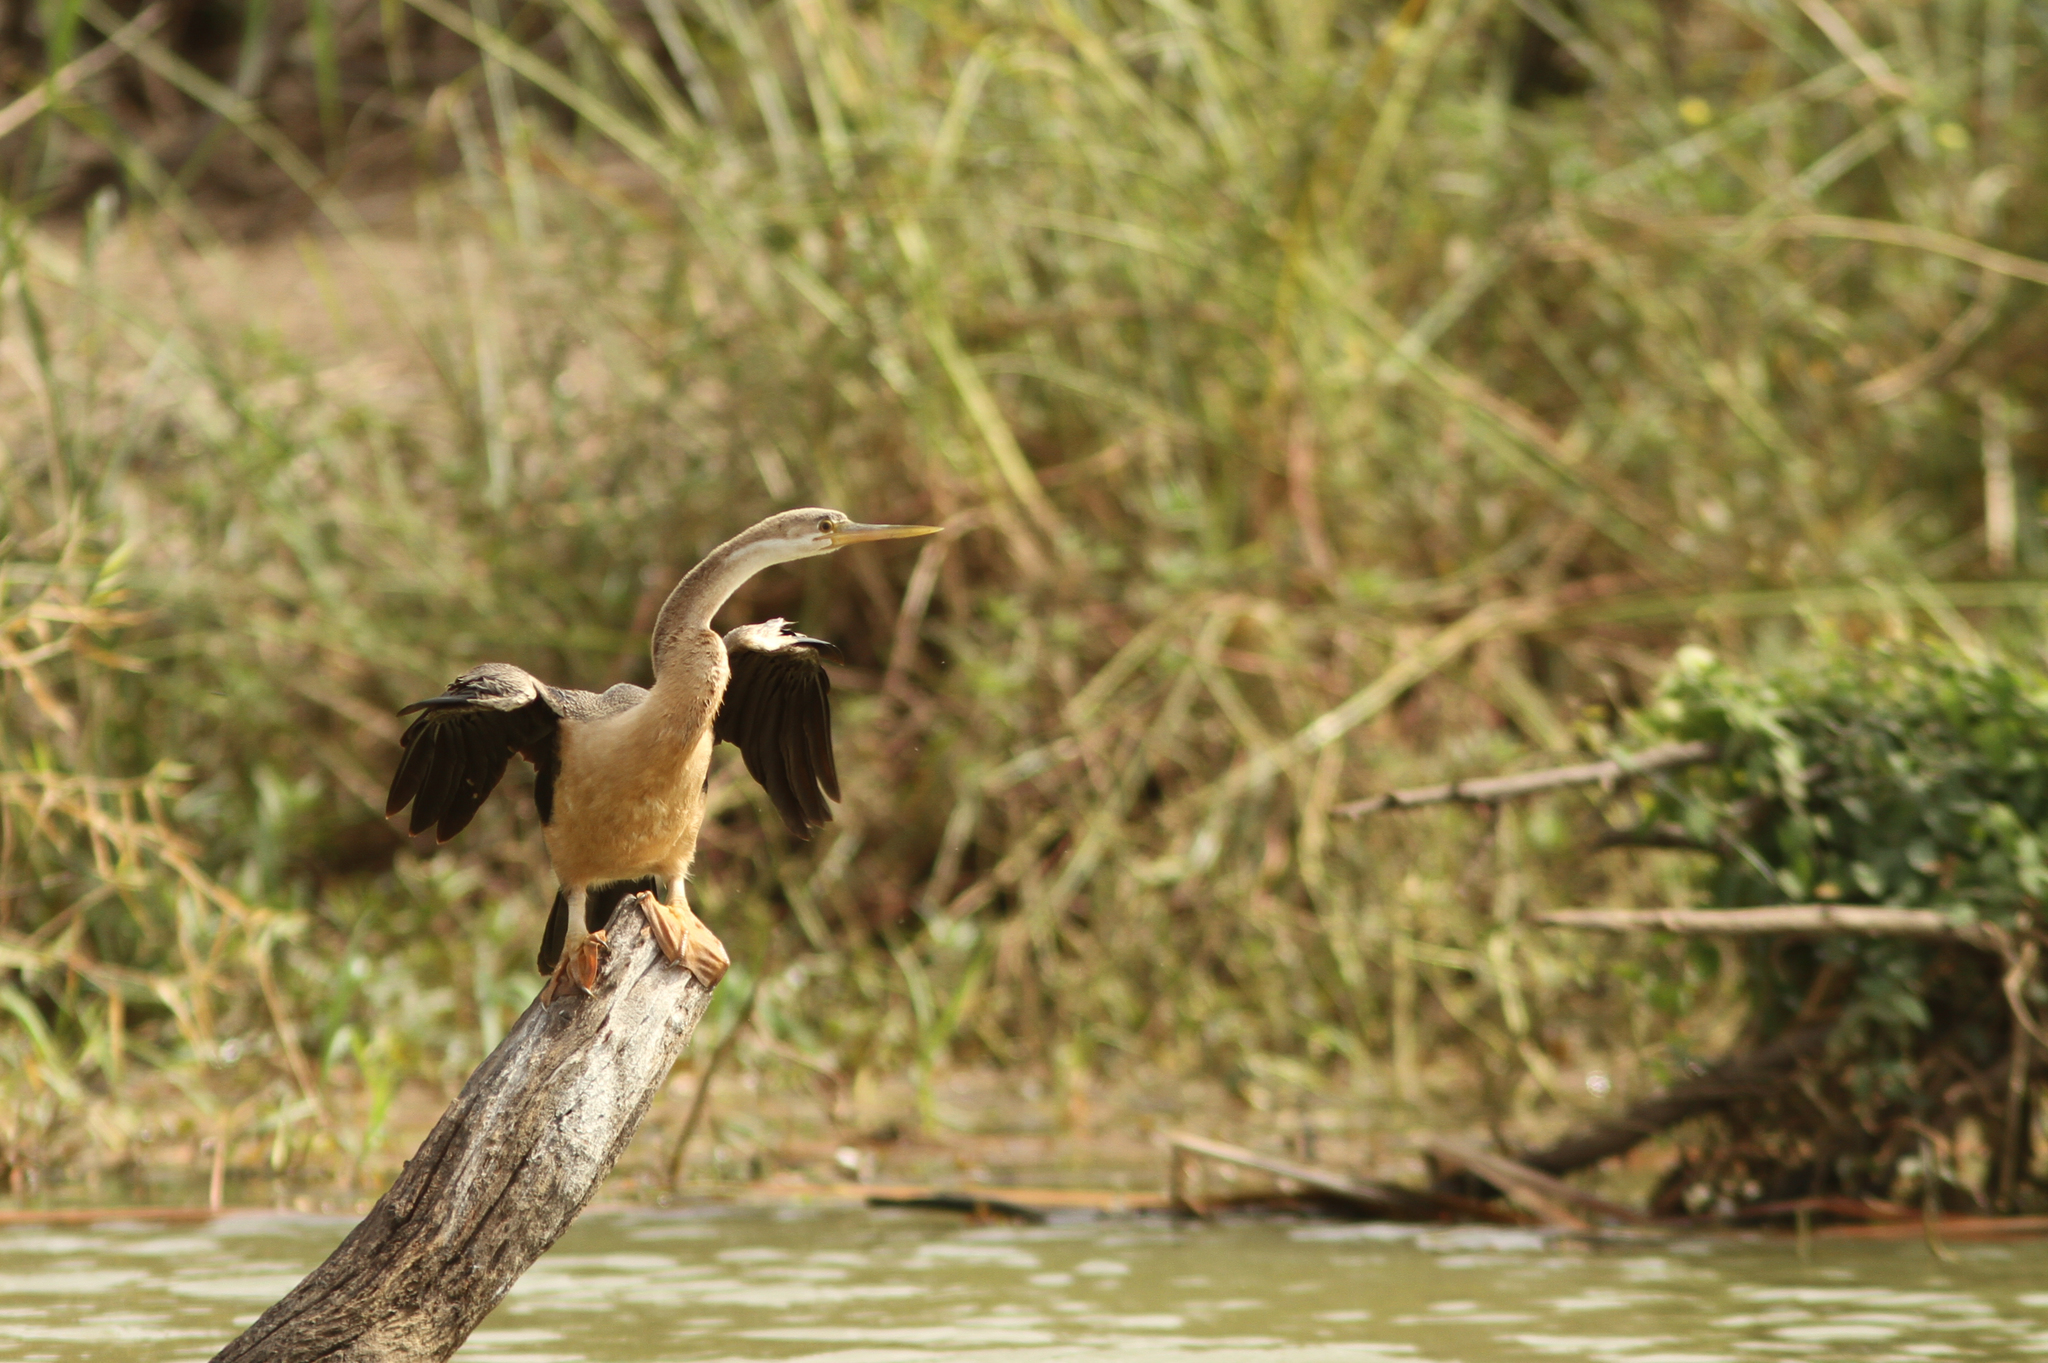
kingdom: Animalia
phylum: Chordata
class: Aves
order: Suliformes
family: Anhingidae
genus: Anhinga
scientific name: Anhinga rufa
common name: African darter
